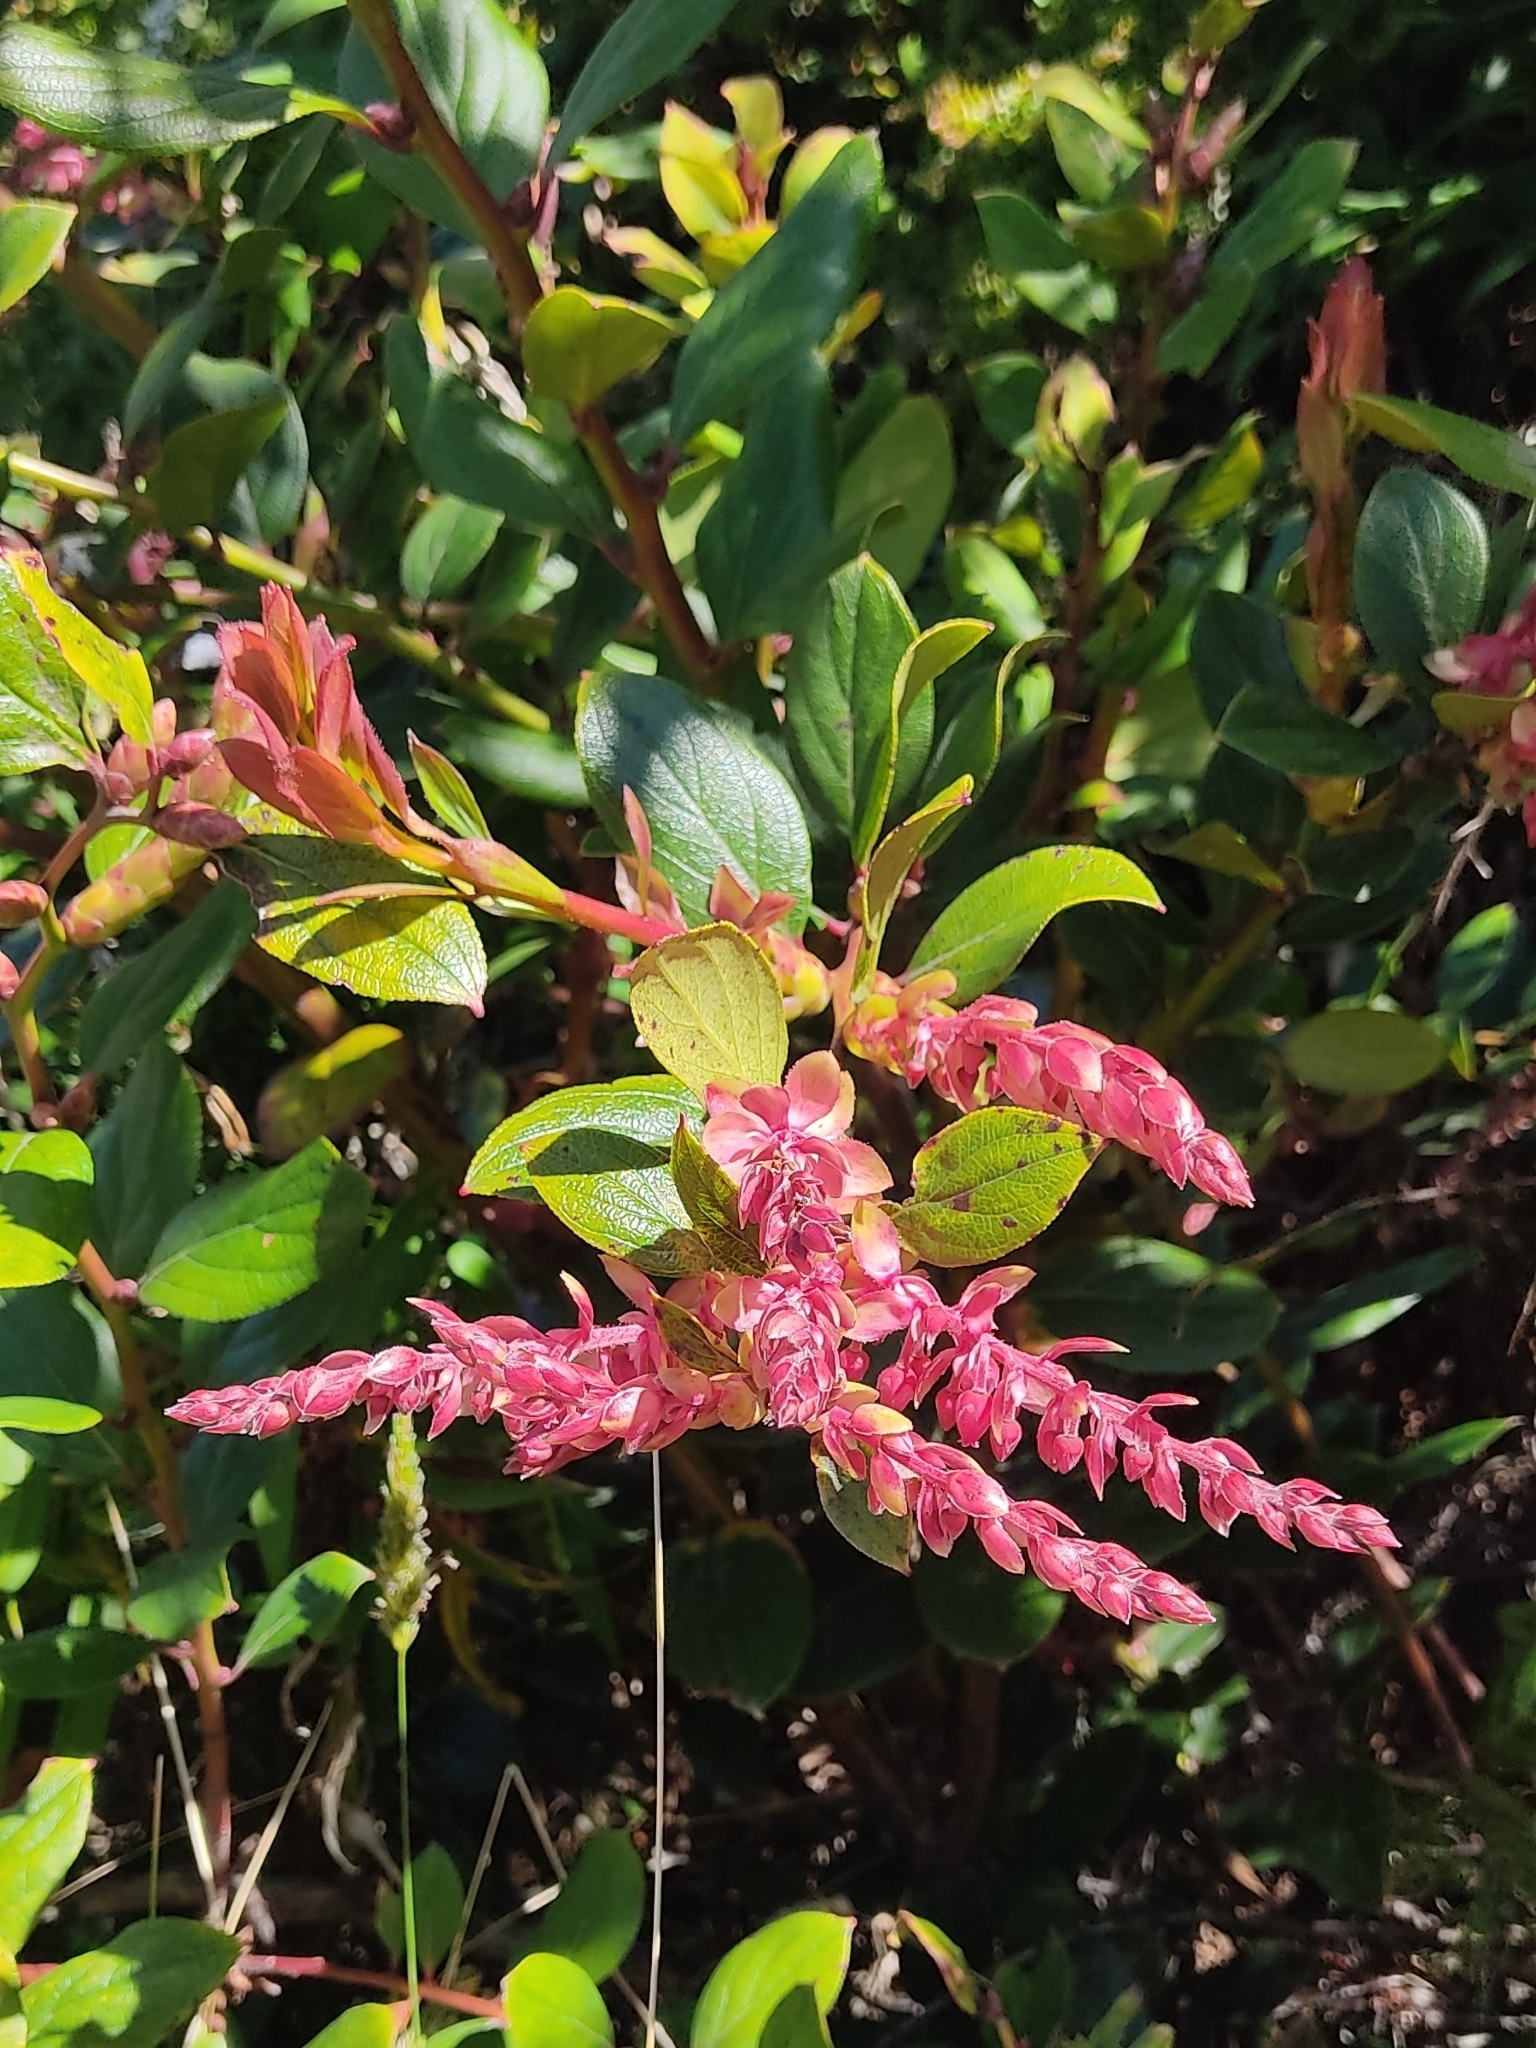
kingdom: Plantae
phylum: Tracheophyta
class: Magnoliopsida
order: Ericales
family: Ericaceae
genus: Gaultheria
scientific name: Gaultheria erecta
